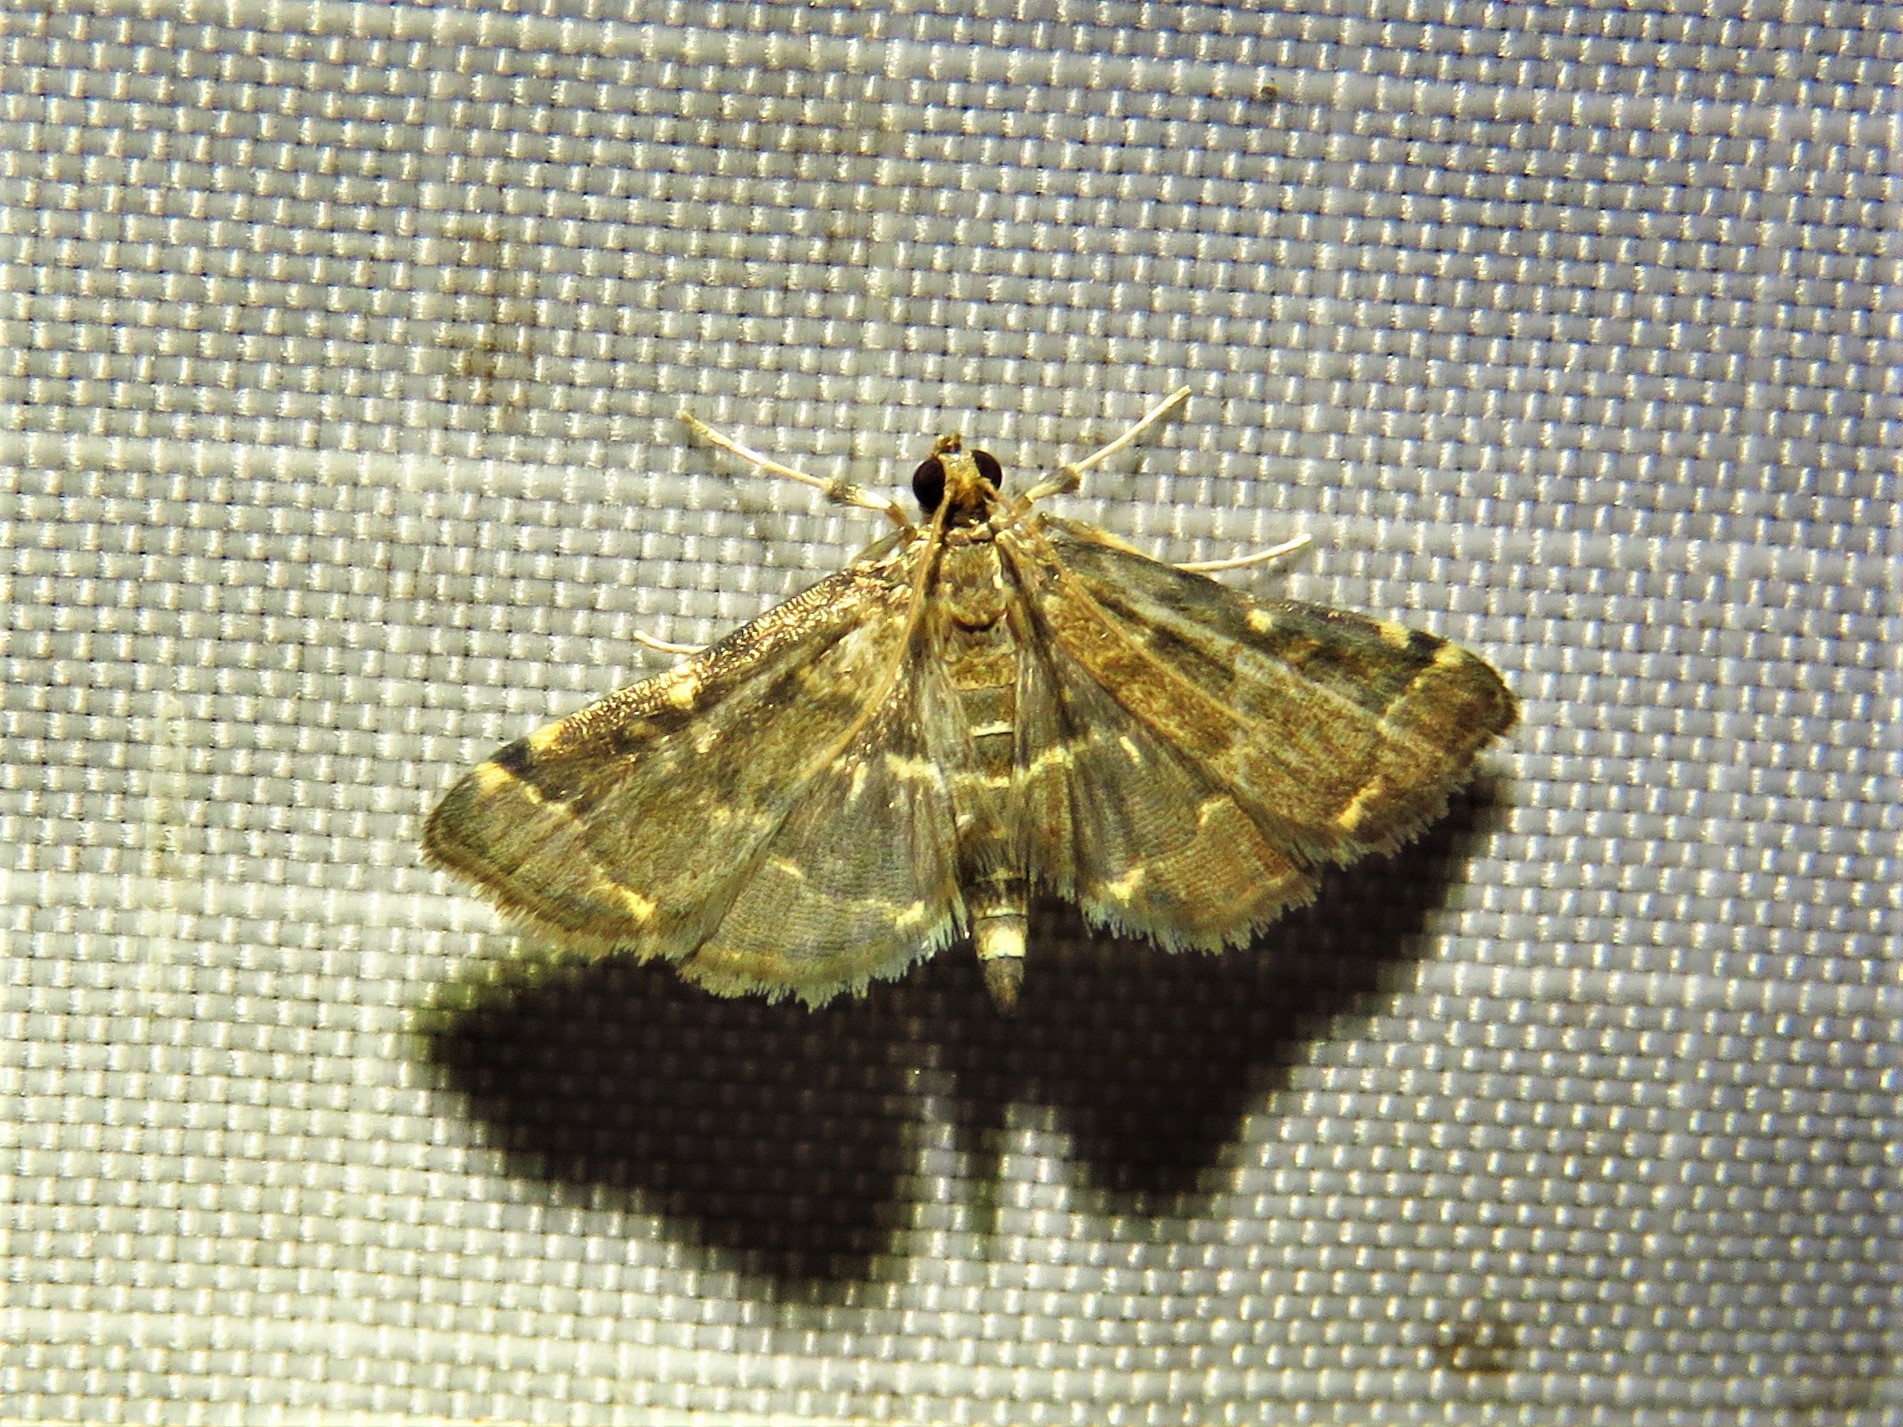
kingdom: Animalia
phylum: Arthropoda
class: Insecta
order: Lepidoptera
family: Crambidae
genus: Anageshna
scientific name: Anageshna primordialis
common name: Yellow-spotted webworm moth
